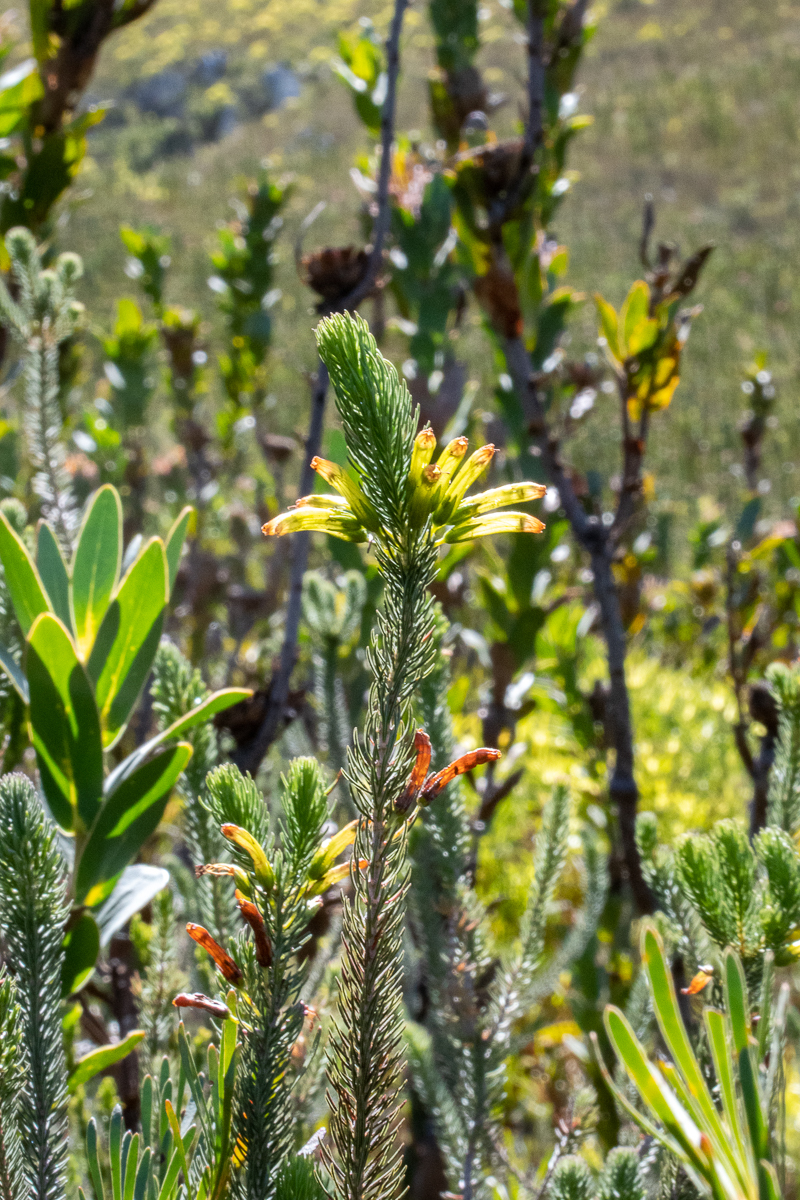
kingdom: Plantae
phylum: Tracheophyta
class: Magnoliopsida
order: Ericales
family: Ericaceae
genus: Erica
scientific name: Erica viscaria
